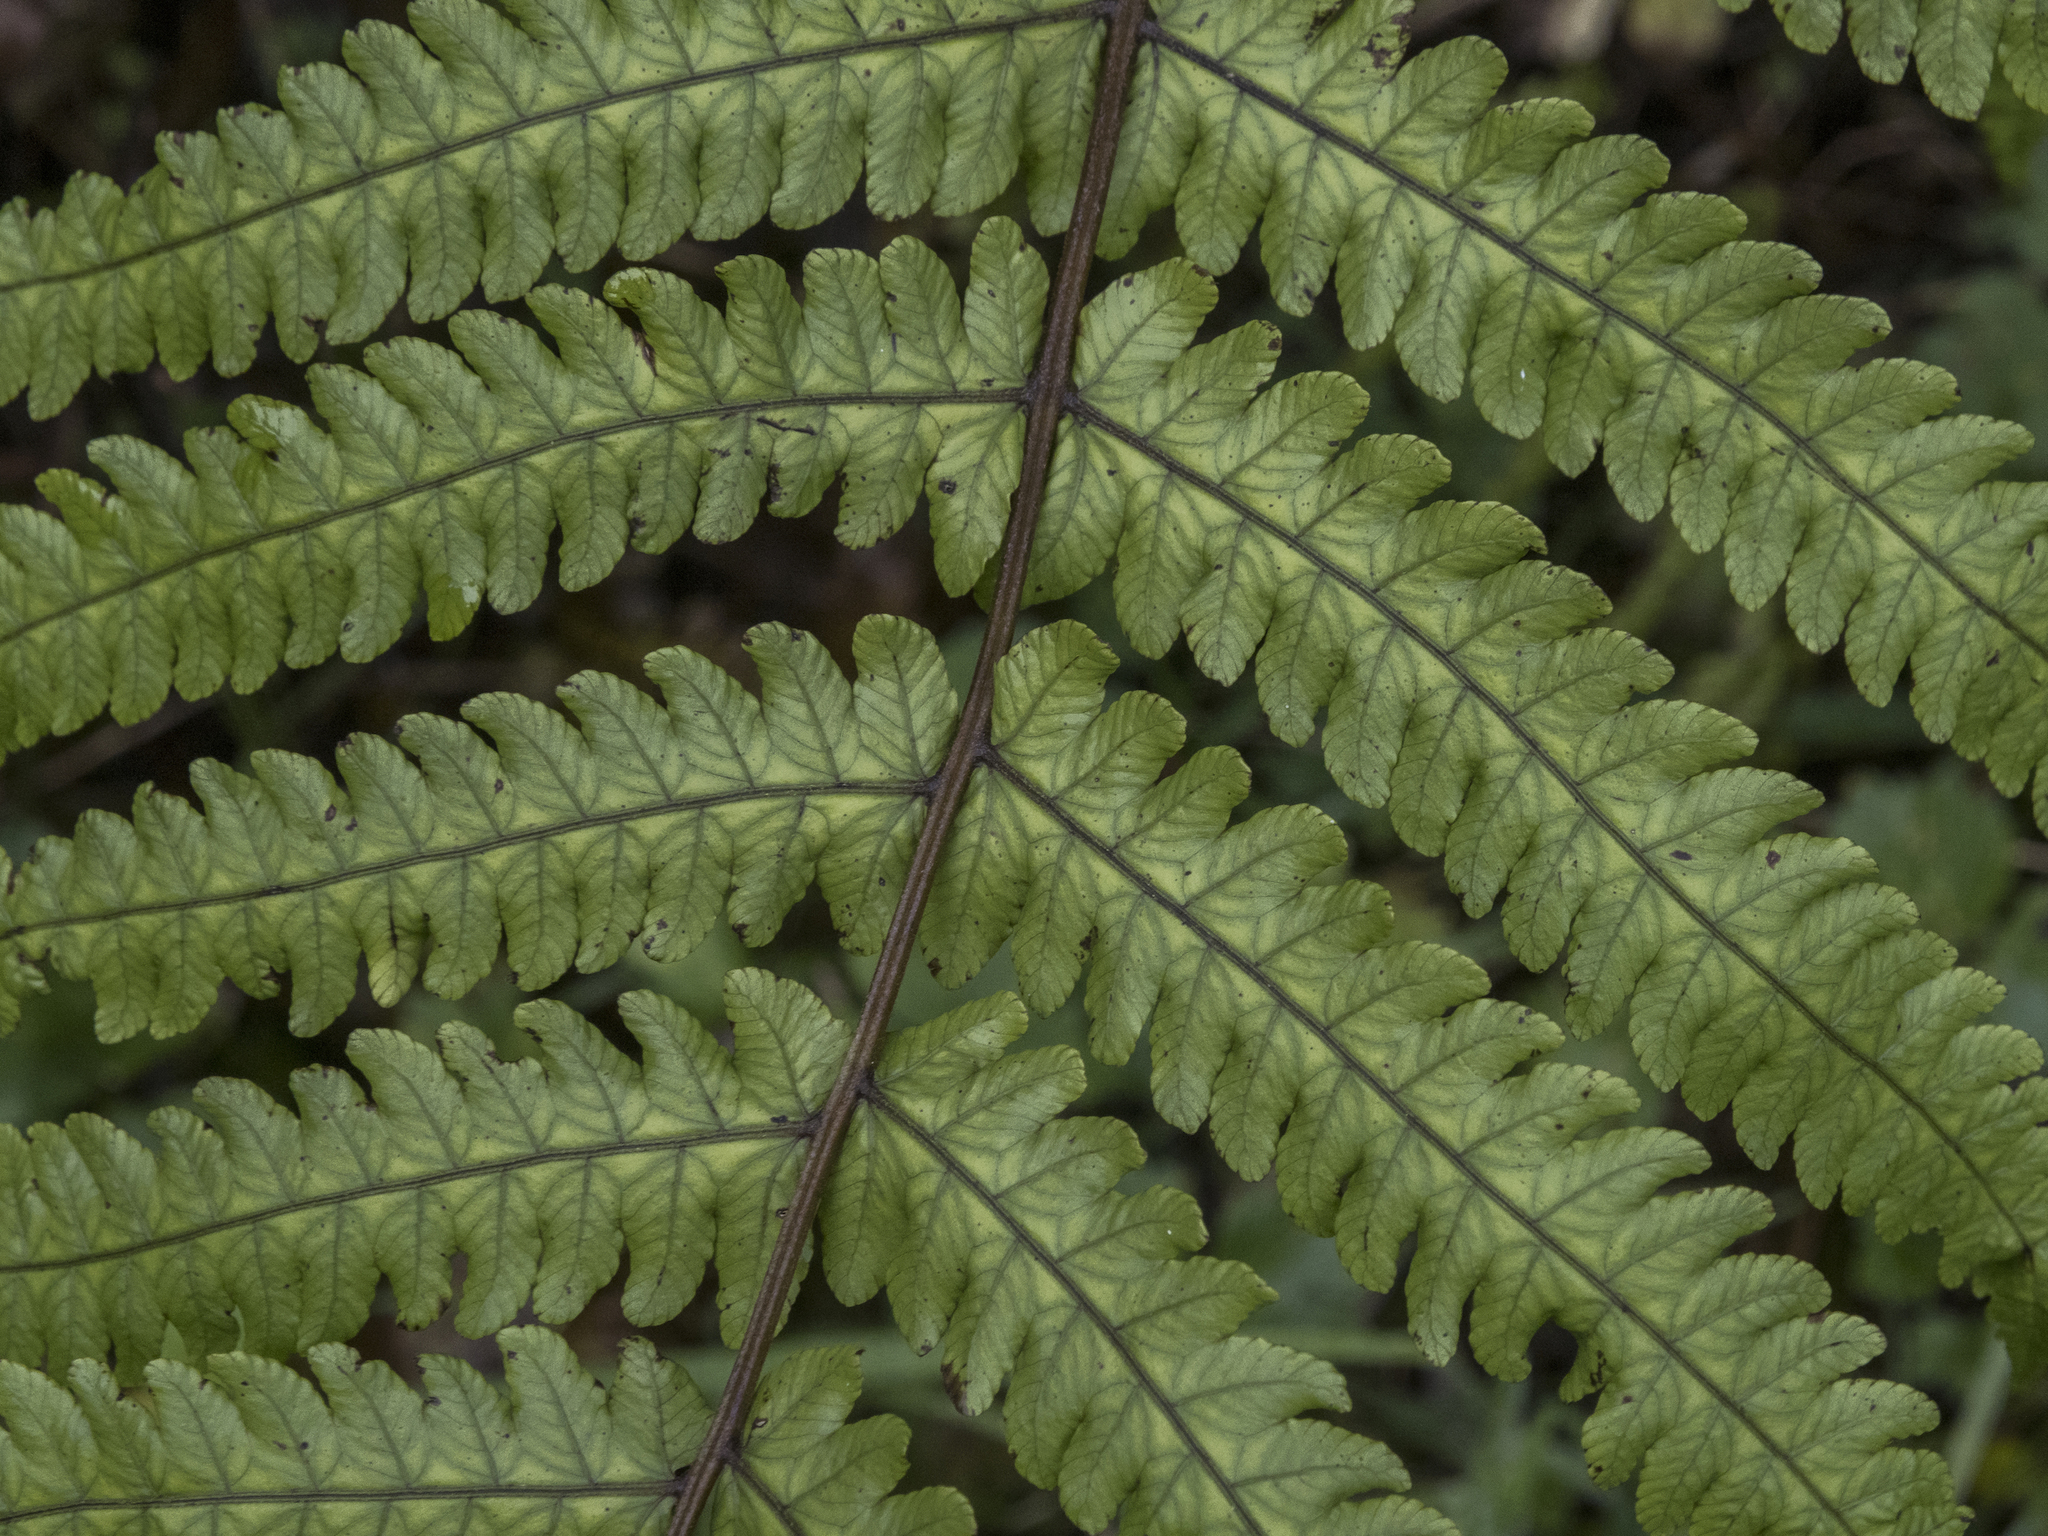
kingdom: Plantae
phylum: Tracheophyta
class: Polypodiopsida
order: Polypodiales
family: Thelypteridaceae
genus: Pakau
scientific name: Pakau pennigera
